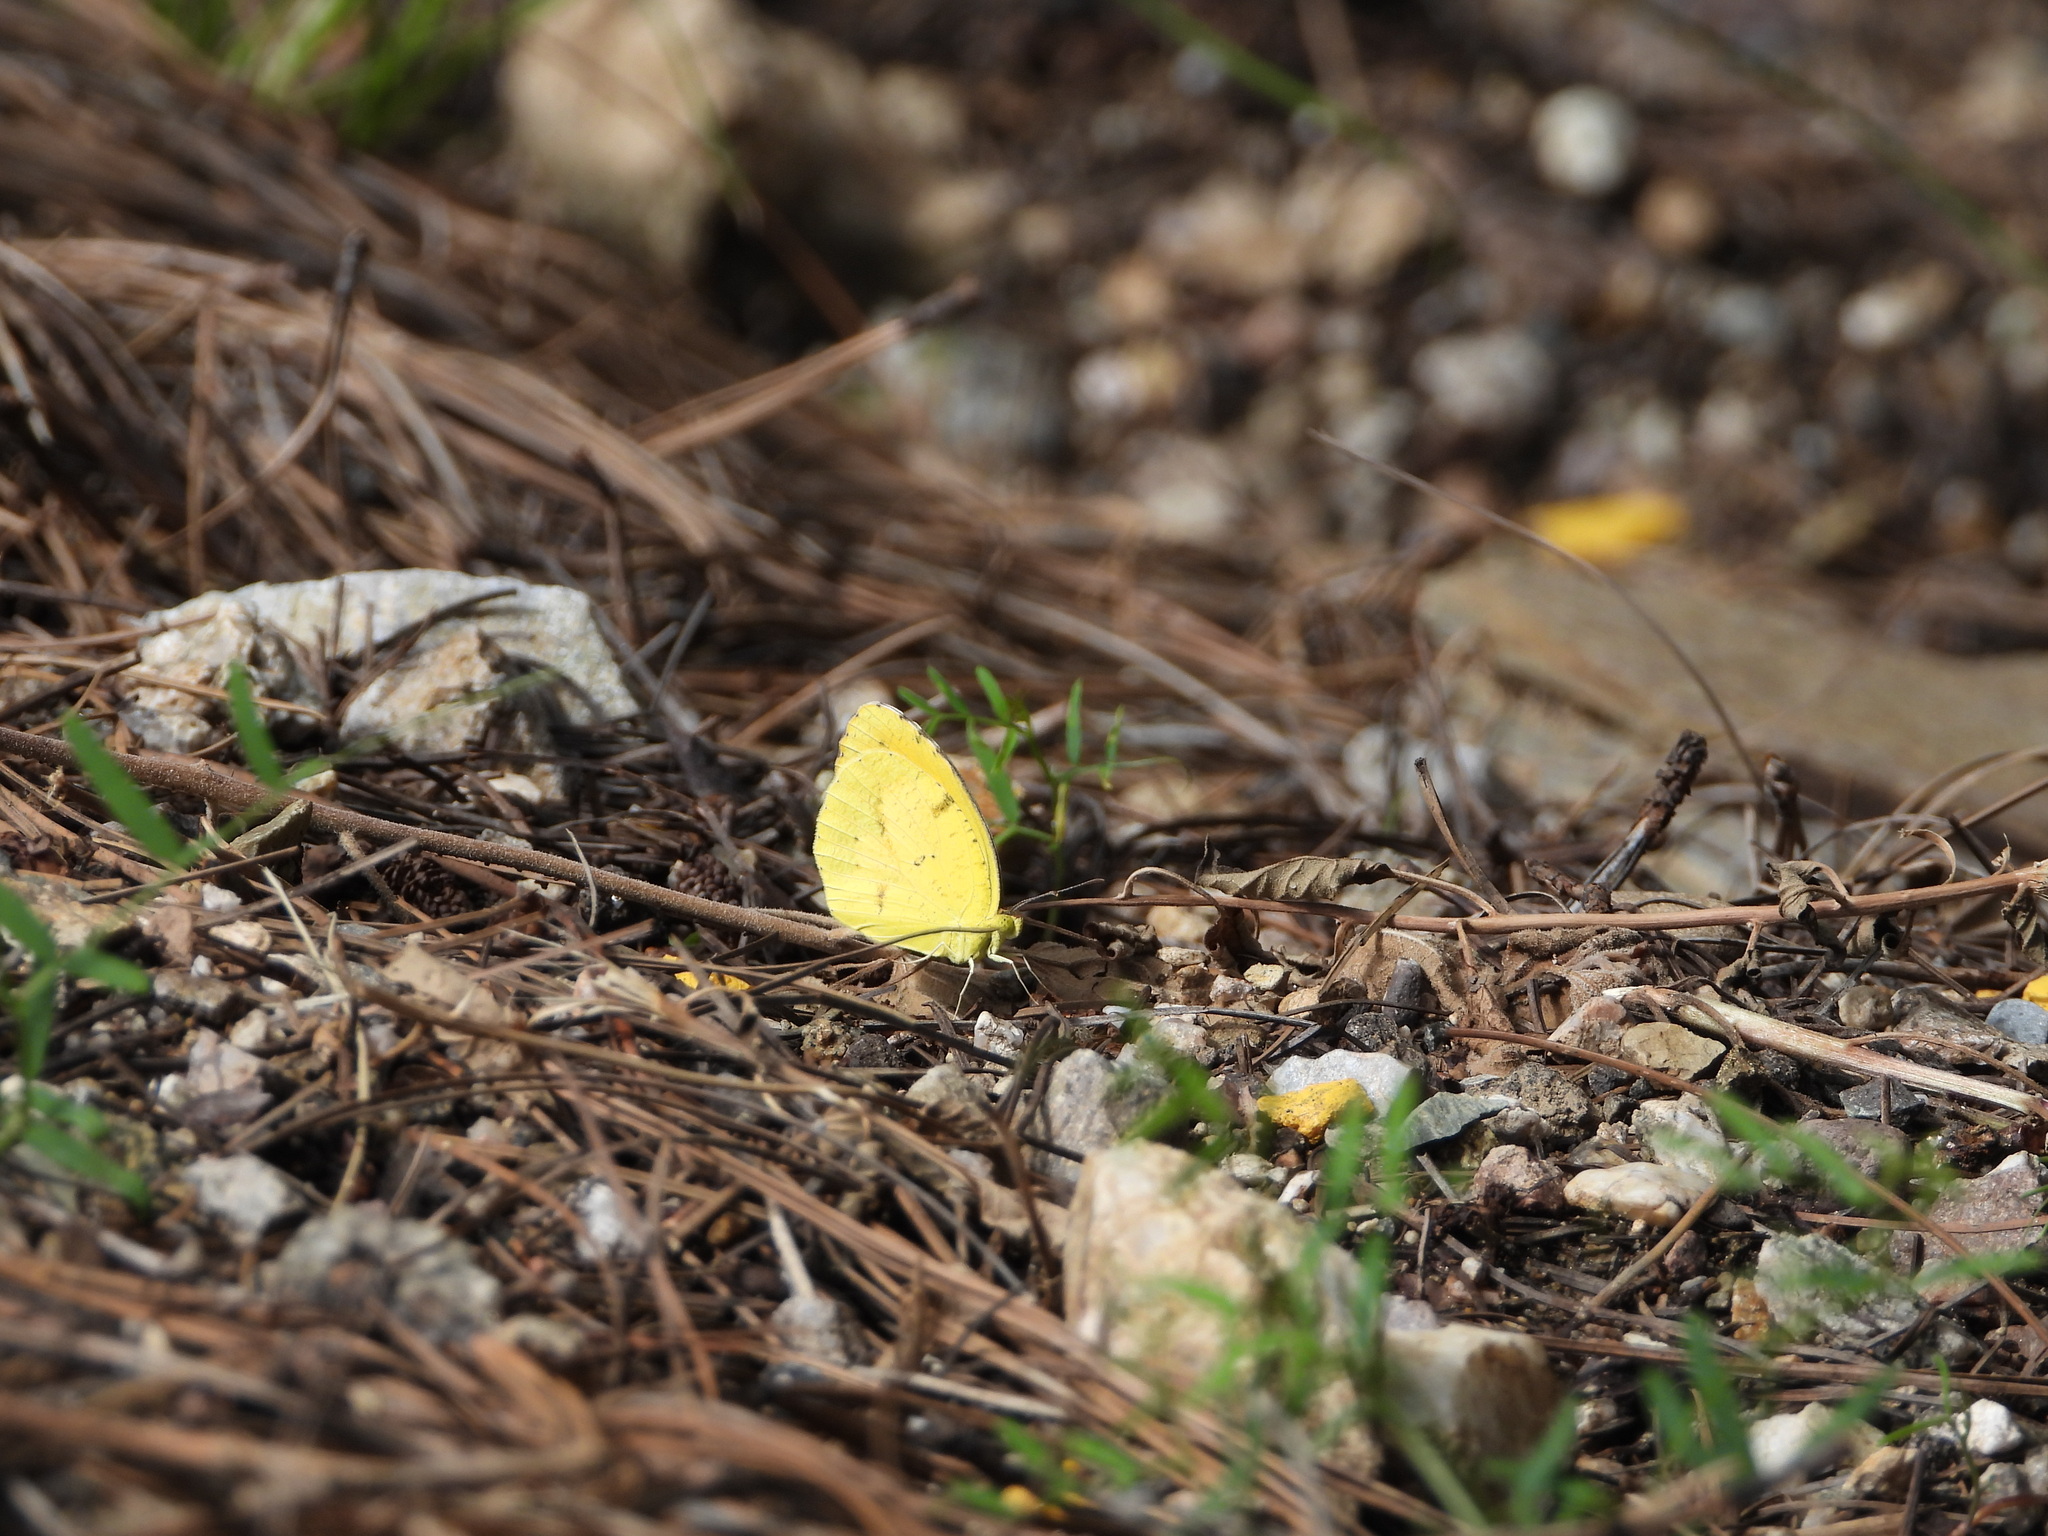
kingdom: Animalia
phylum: Arthropoda
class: Insecta
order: Lepidoptera
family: Pieridae
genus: Abaeis
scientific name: Abaeis nicippe
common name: Sleepy orange
